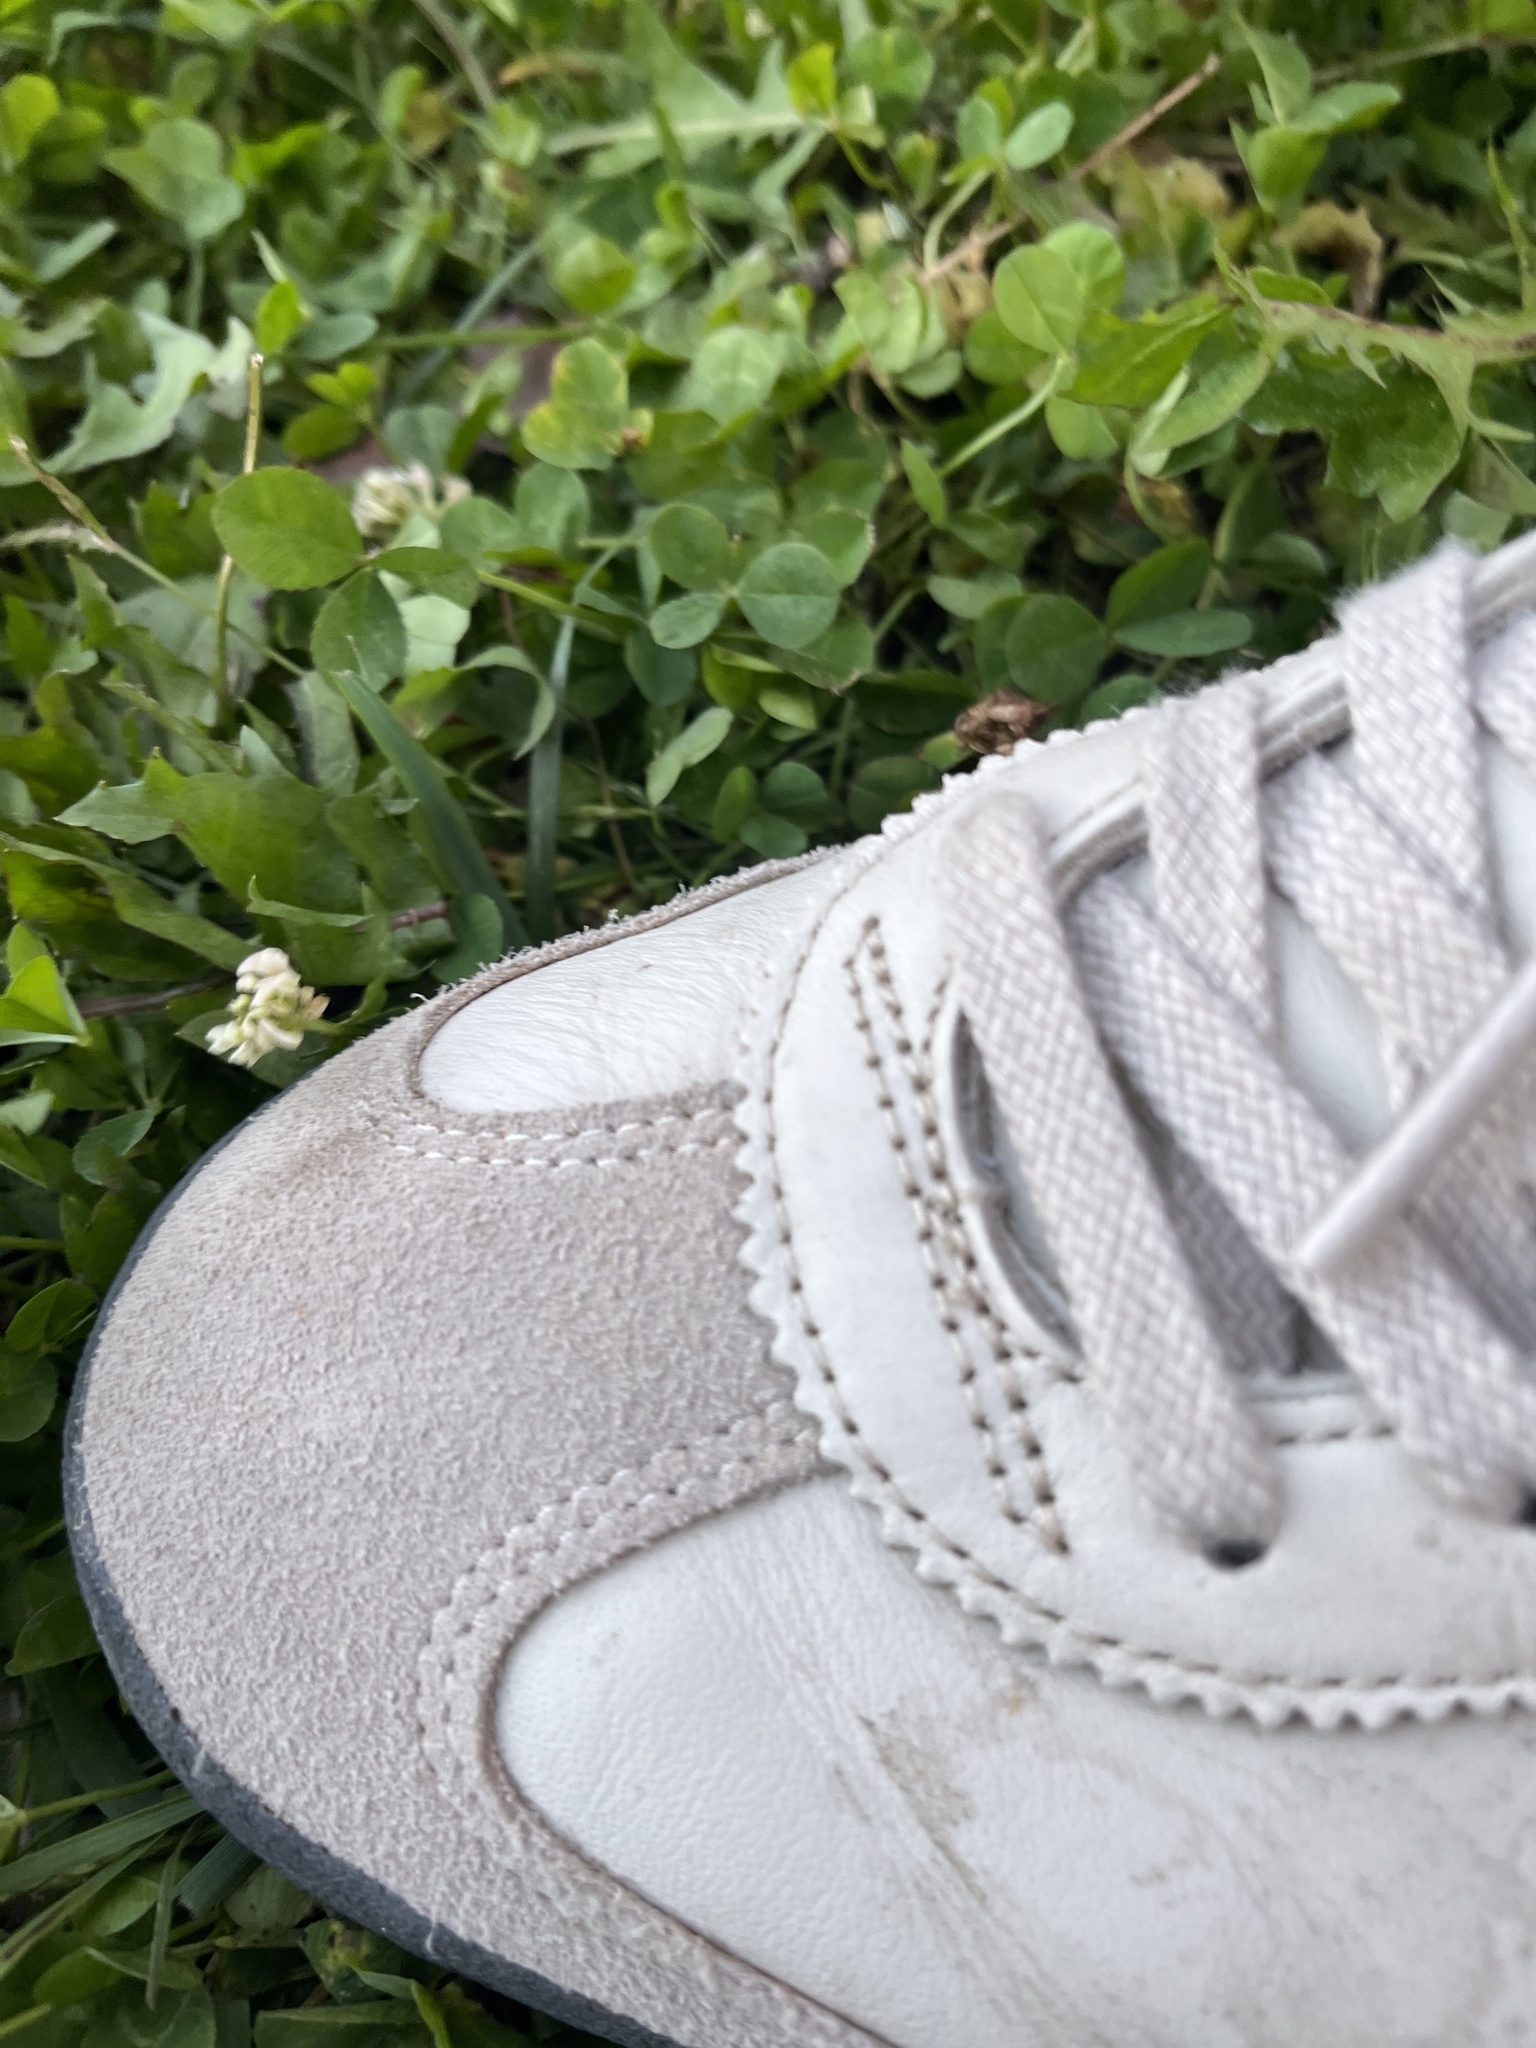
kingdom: Plantae
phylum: Tracheophyta
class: Magnoliopsida
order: Fabales
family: Fabaceae
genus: Trifolium
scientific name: Trifolium repens
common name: White clover
